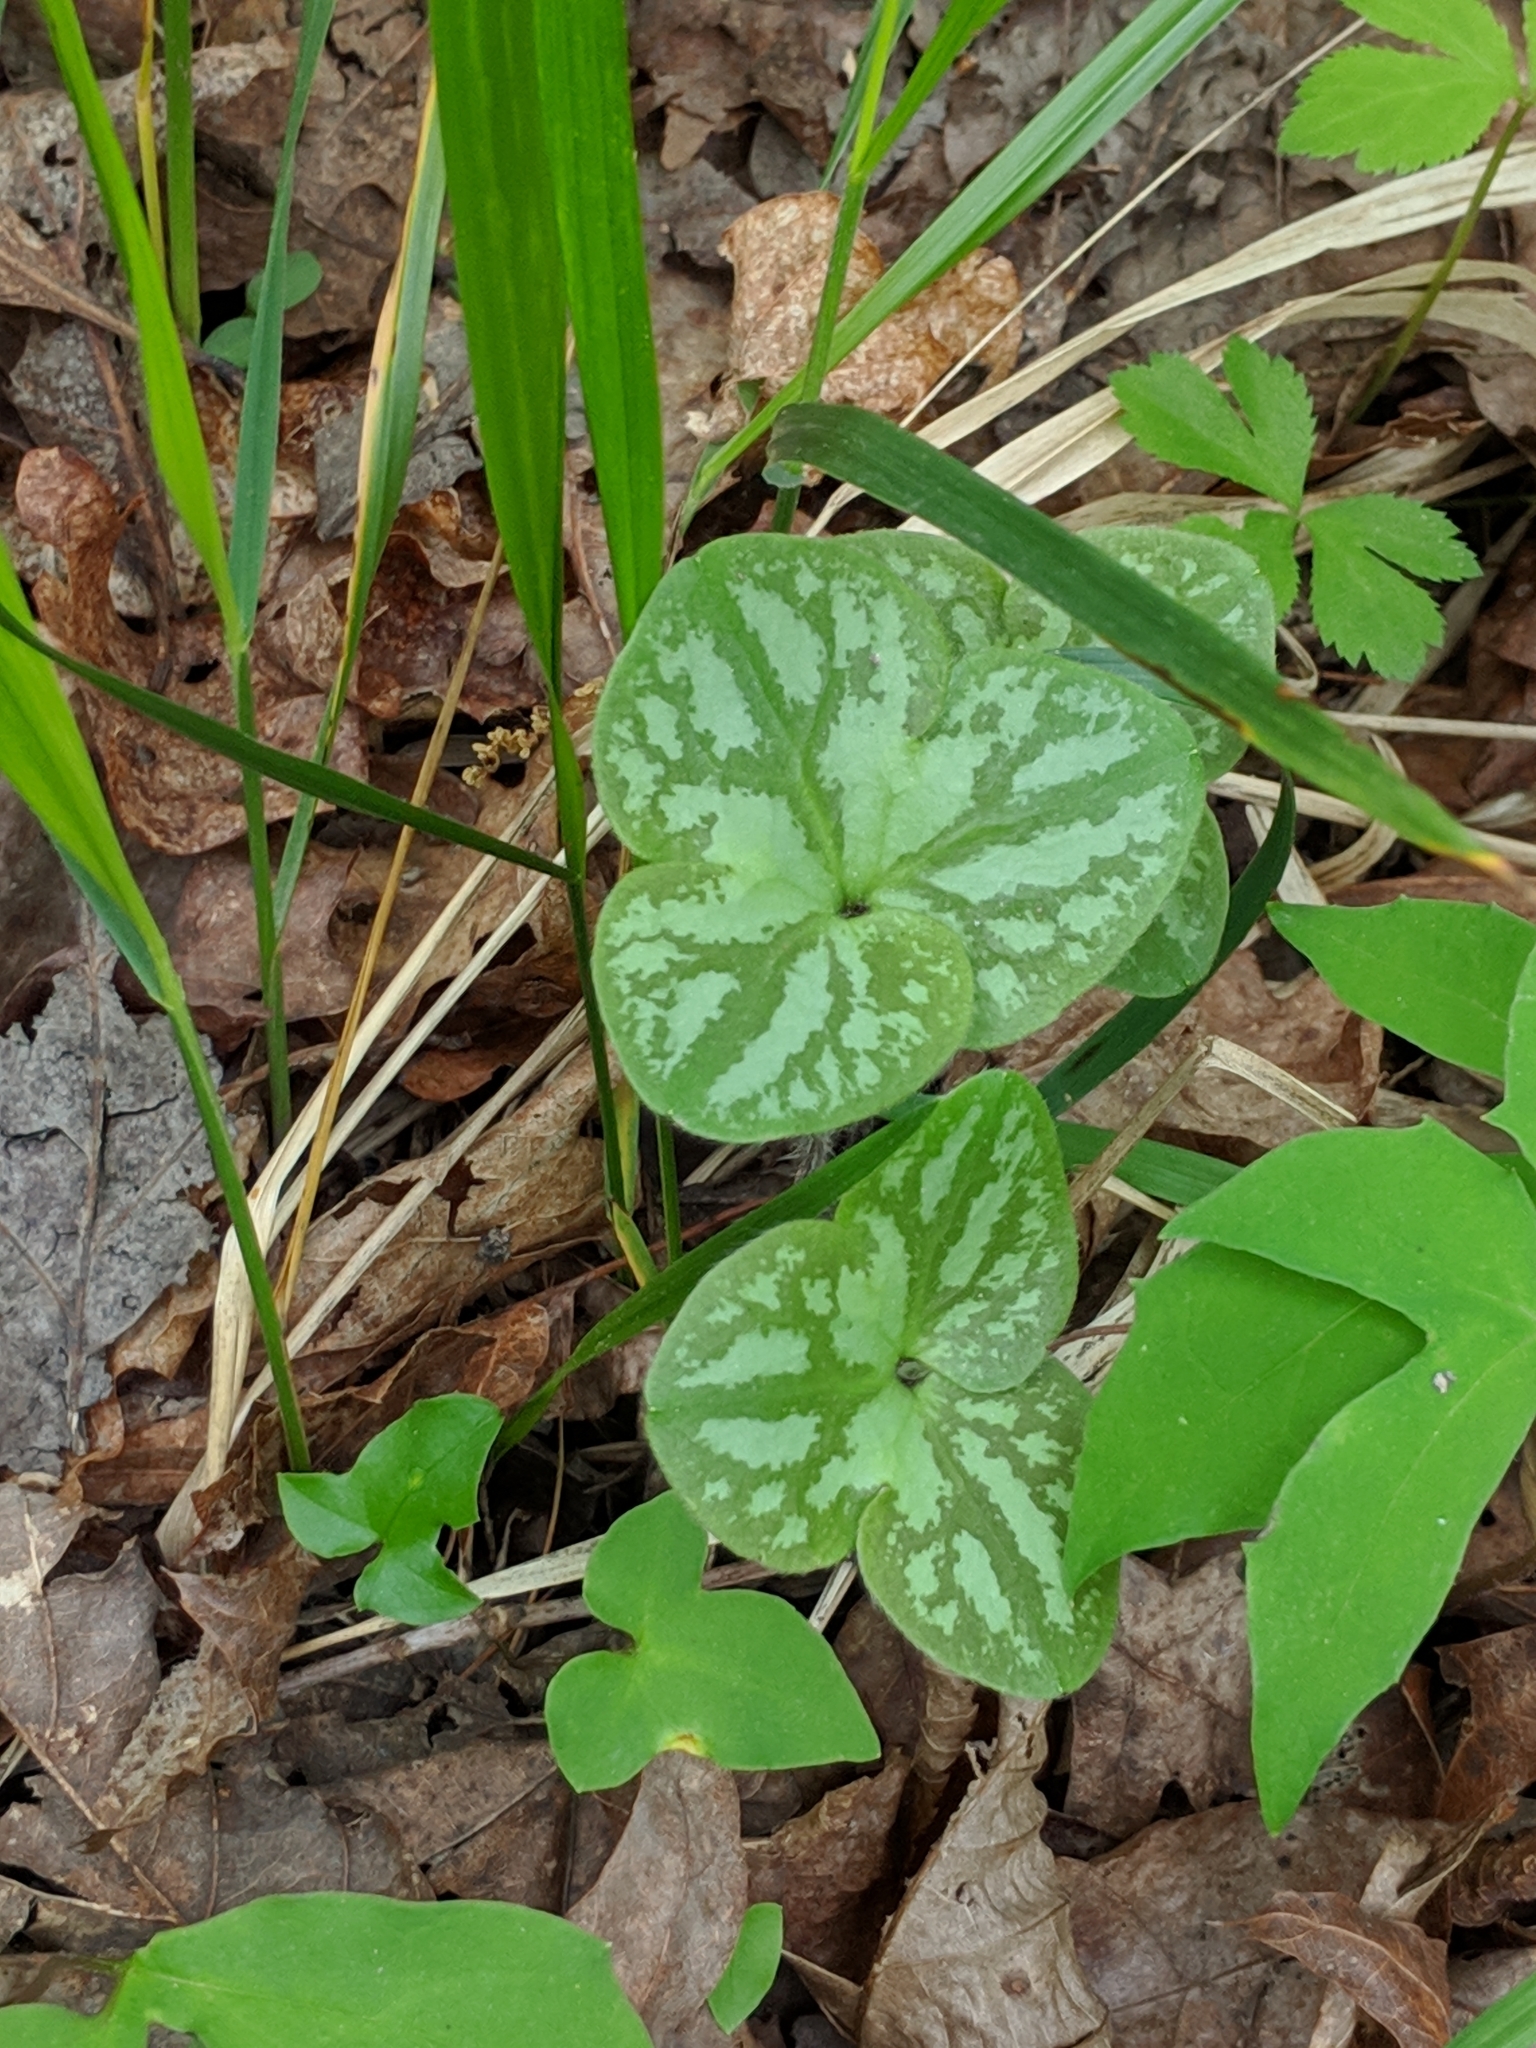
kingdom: Plantae
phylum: Tracheophyta
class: Magnoliopsida
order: Ranunculales
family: Ranunculaceae
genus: Hepatica
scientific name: Hepatica americana
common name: American hepatica
